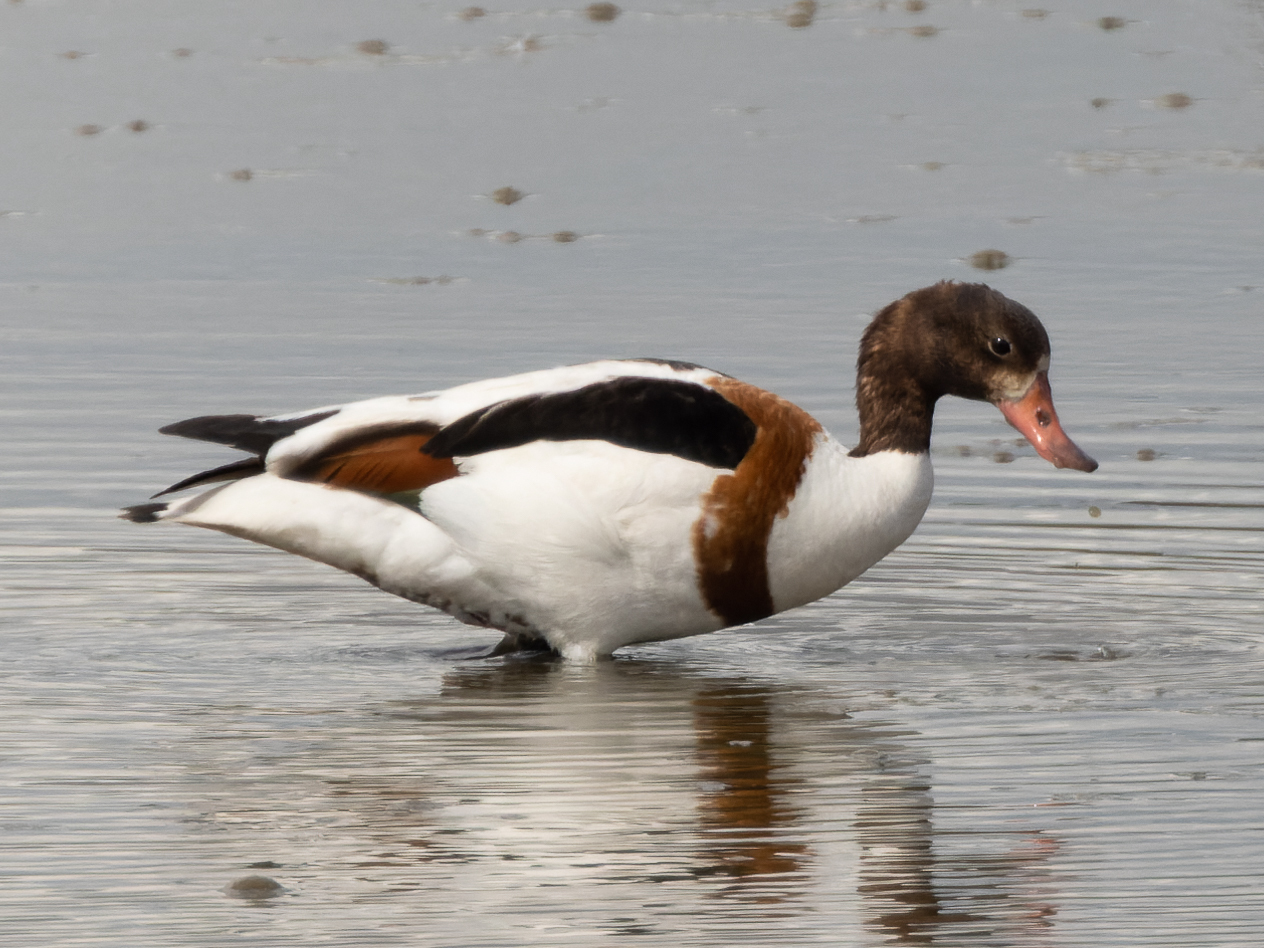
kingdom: Animalia
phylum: Chordata
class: Aves
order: Anseriformes
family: Anatidae
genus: Tadorna
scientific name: Tadorna tadorna
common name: Common shelduck
